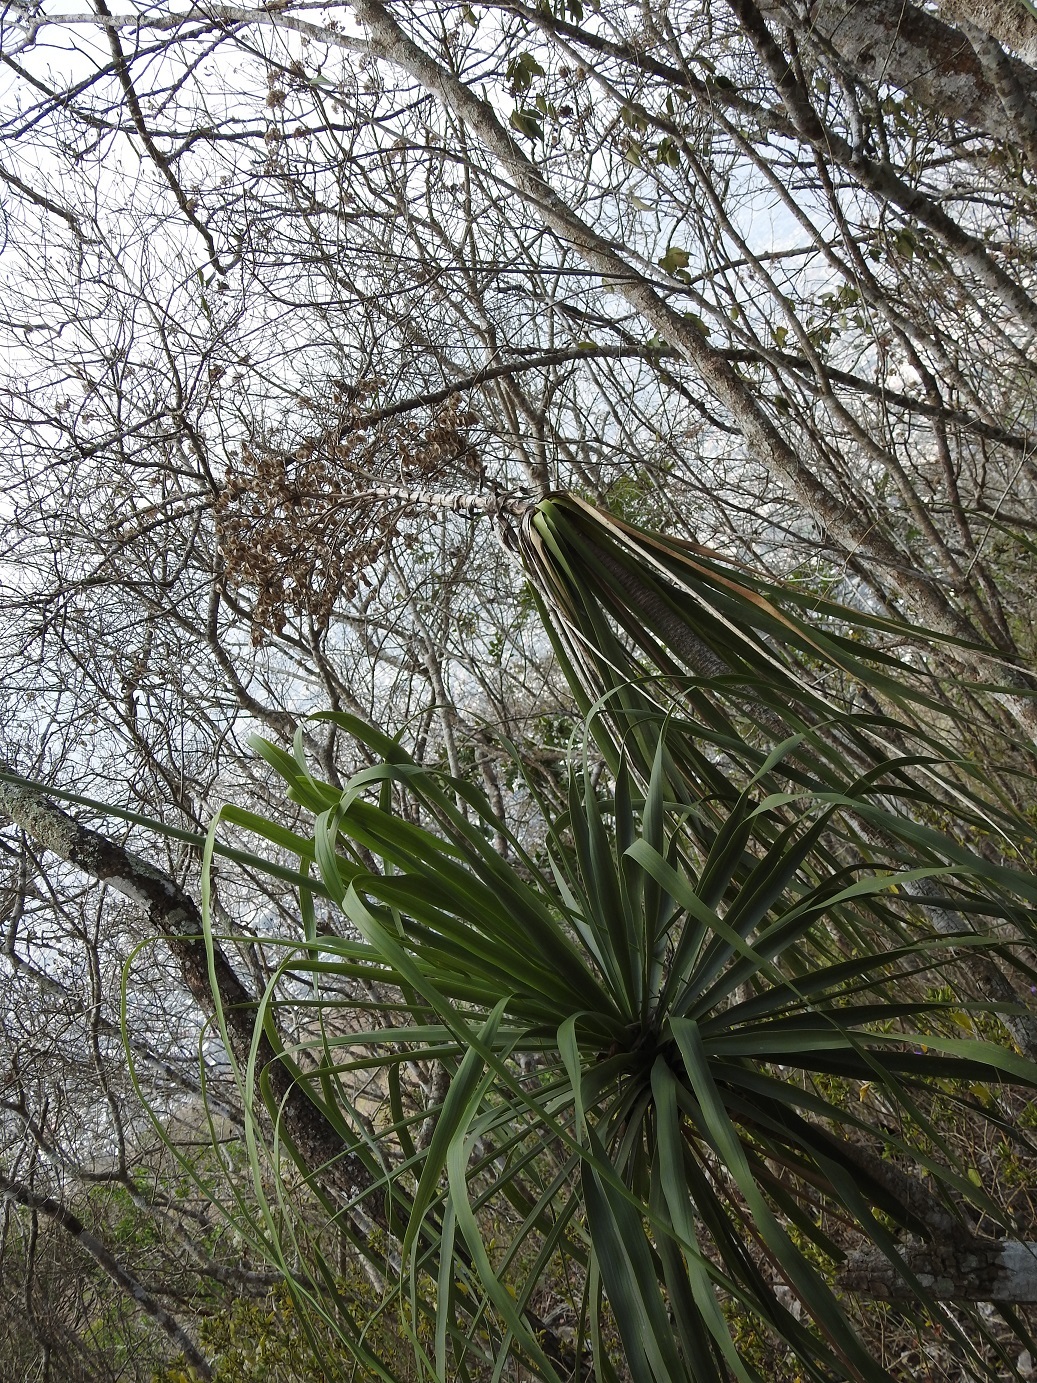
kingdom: Plantae
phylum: Tracheophyta
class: Liliopsida
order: Asparagales
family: Asparagaceae
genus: Beaucarnea
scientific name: Beaucarnea goldmanii
